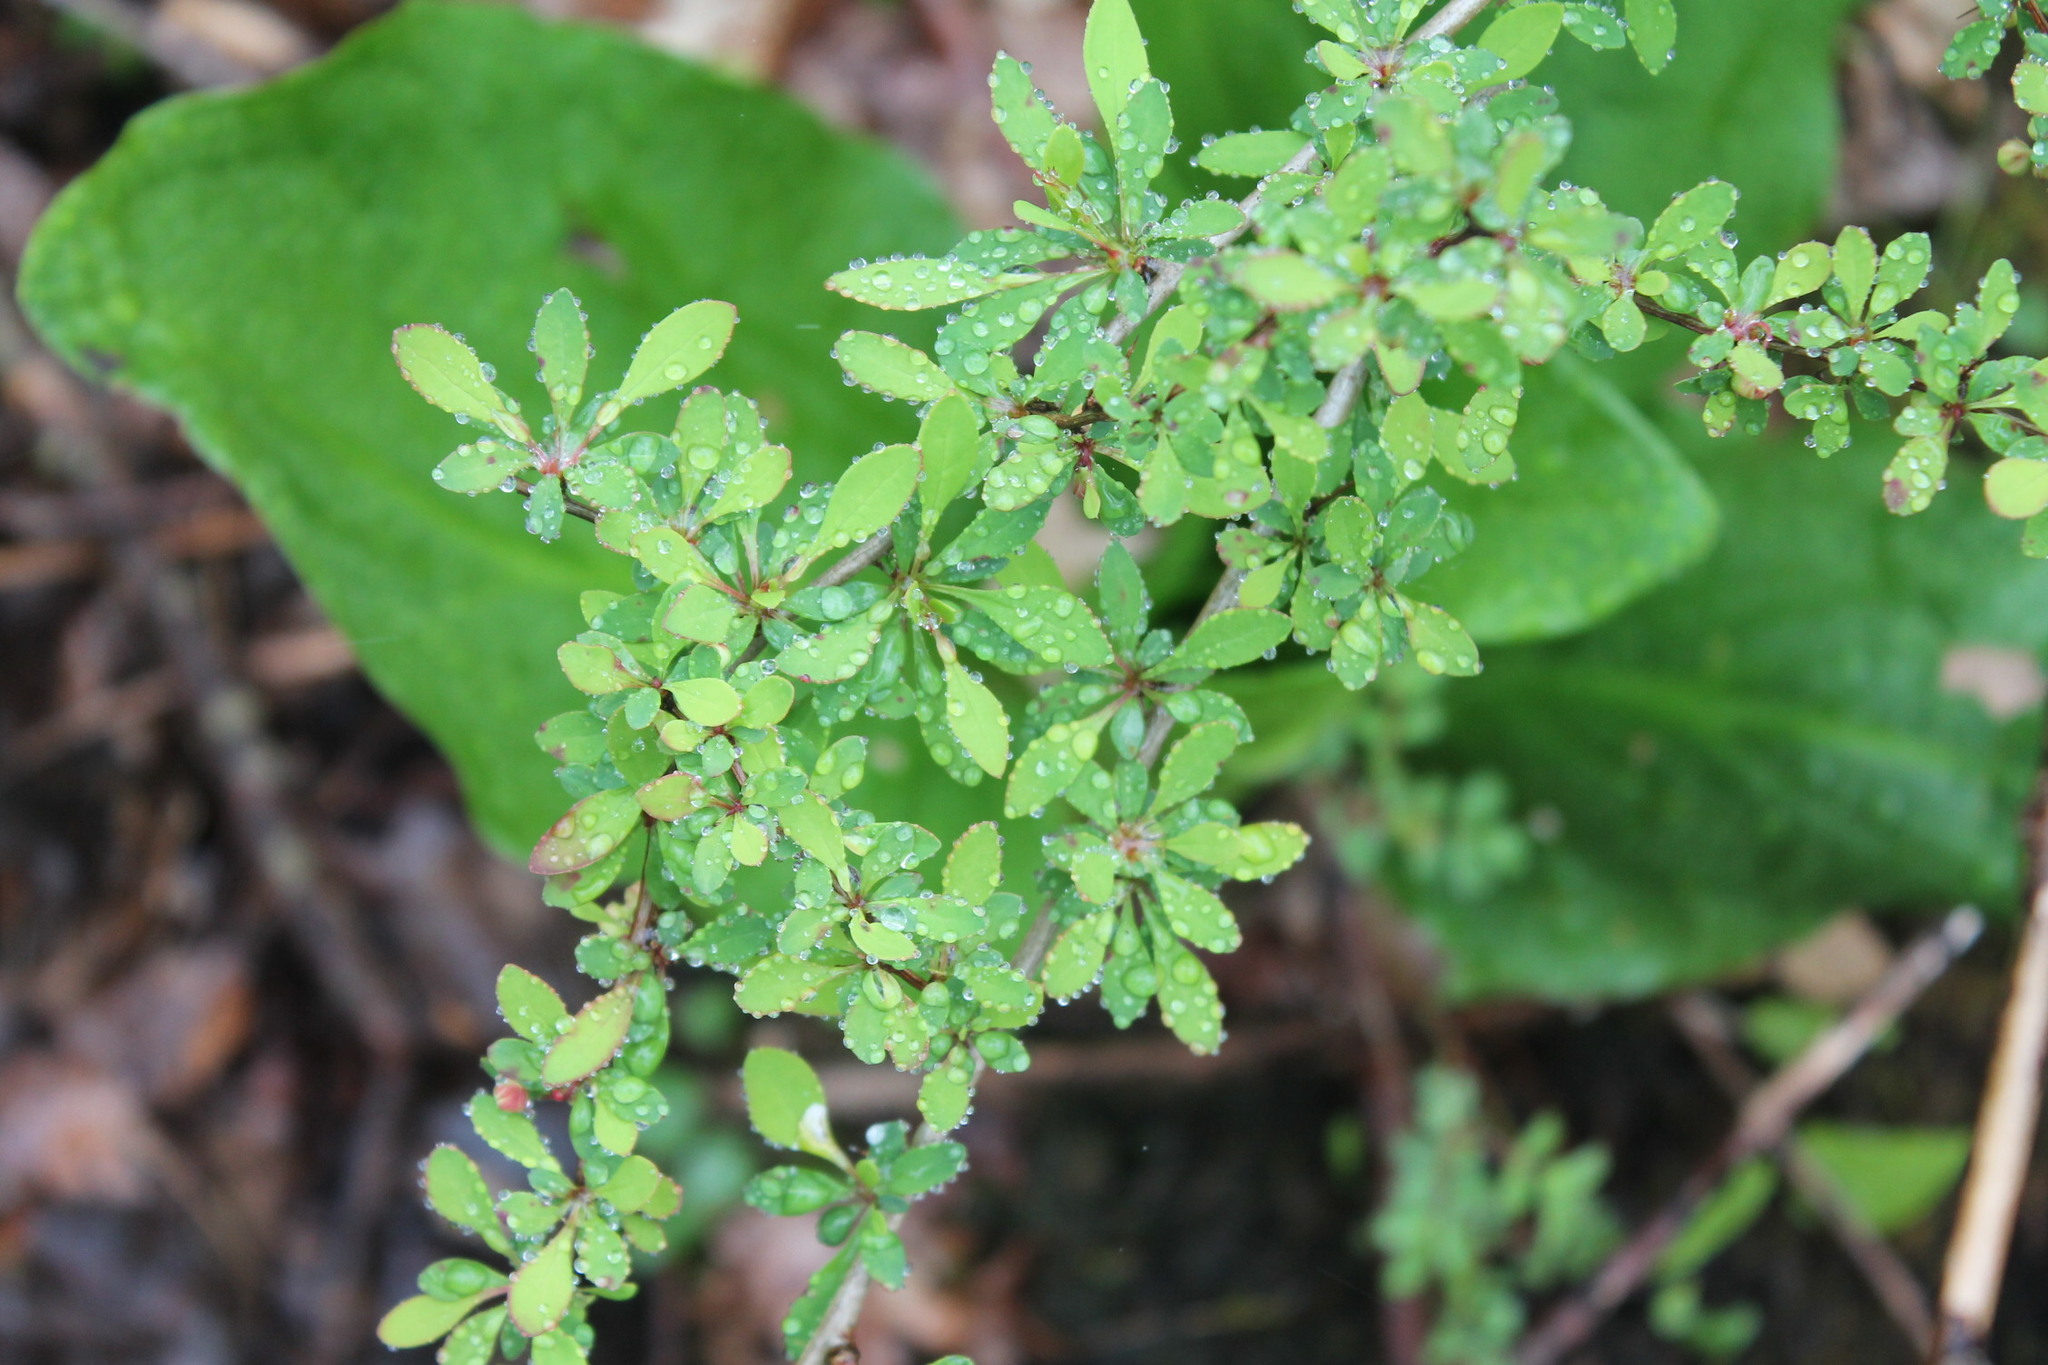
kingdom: Plantae
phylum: Tracheophyta
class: Magnoliopsida
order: Ranunculales
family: Berberidaceae
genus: Berberis
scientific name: Berberis thunbergii
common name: Japanese barberry
